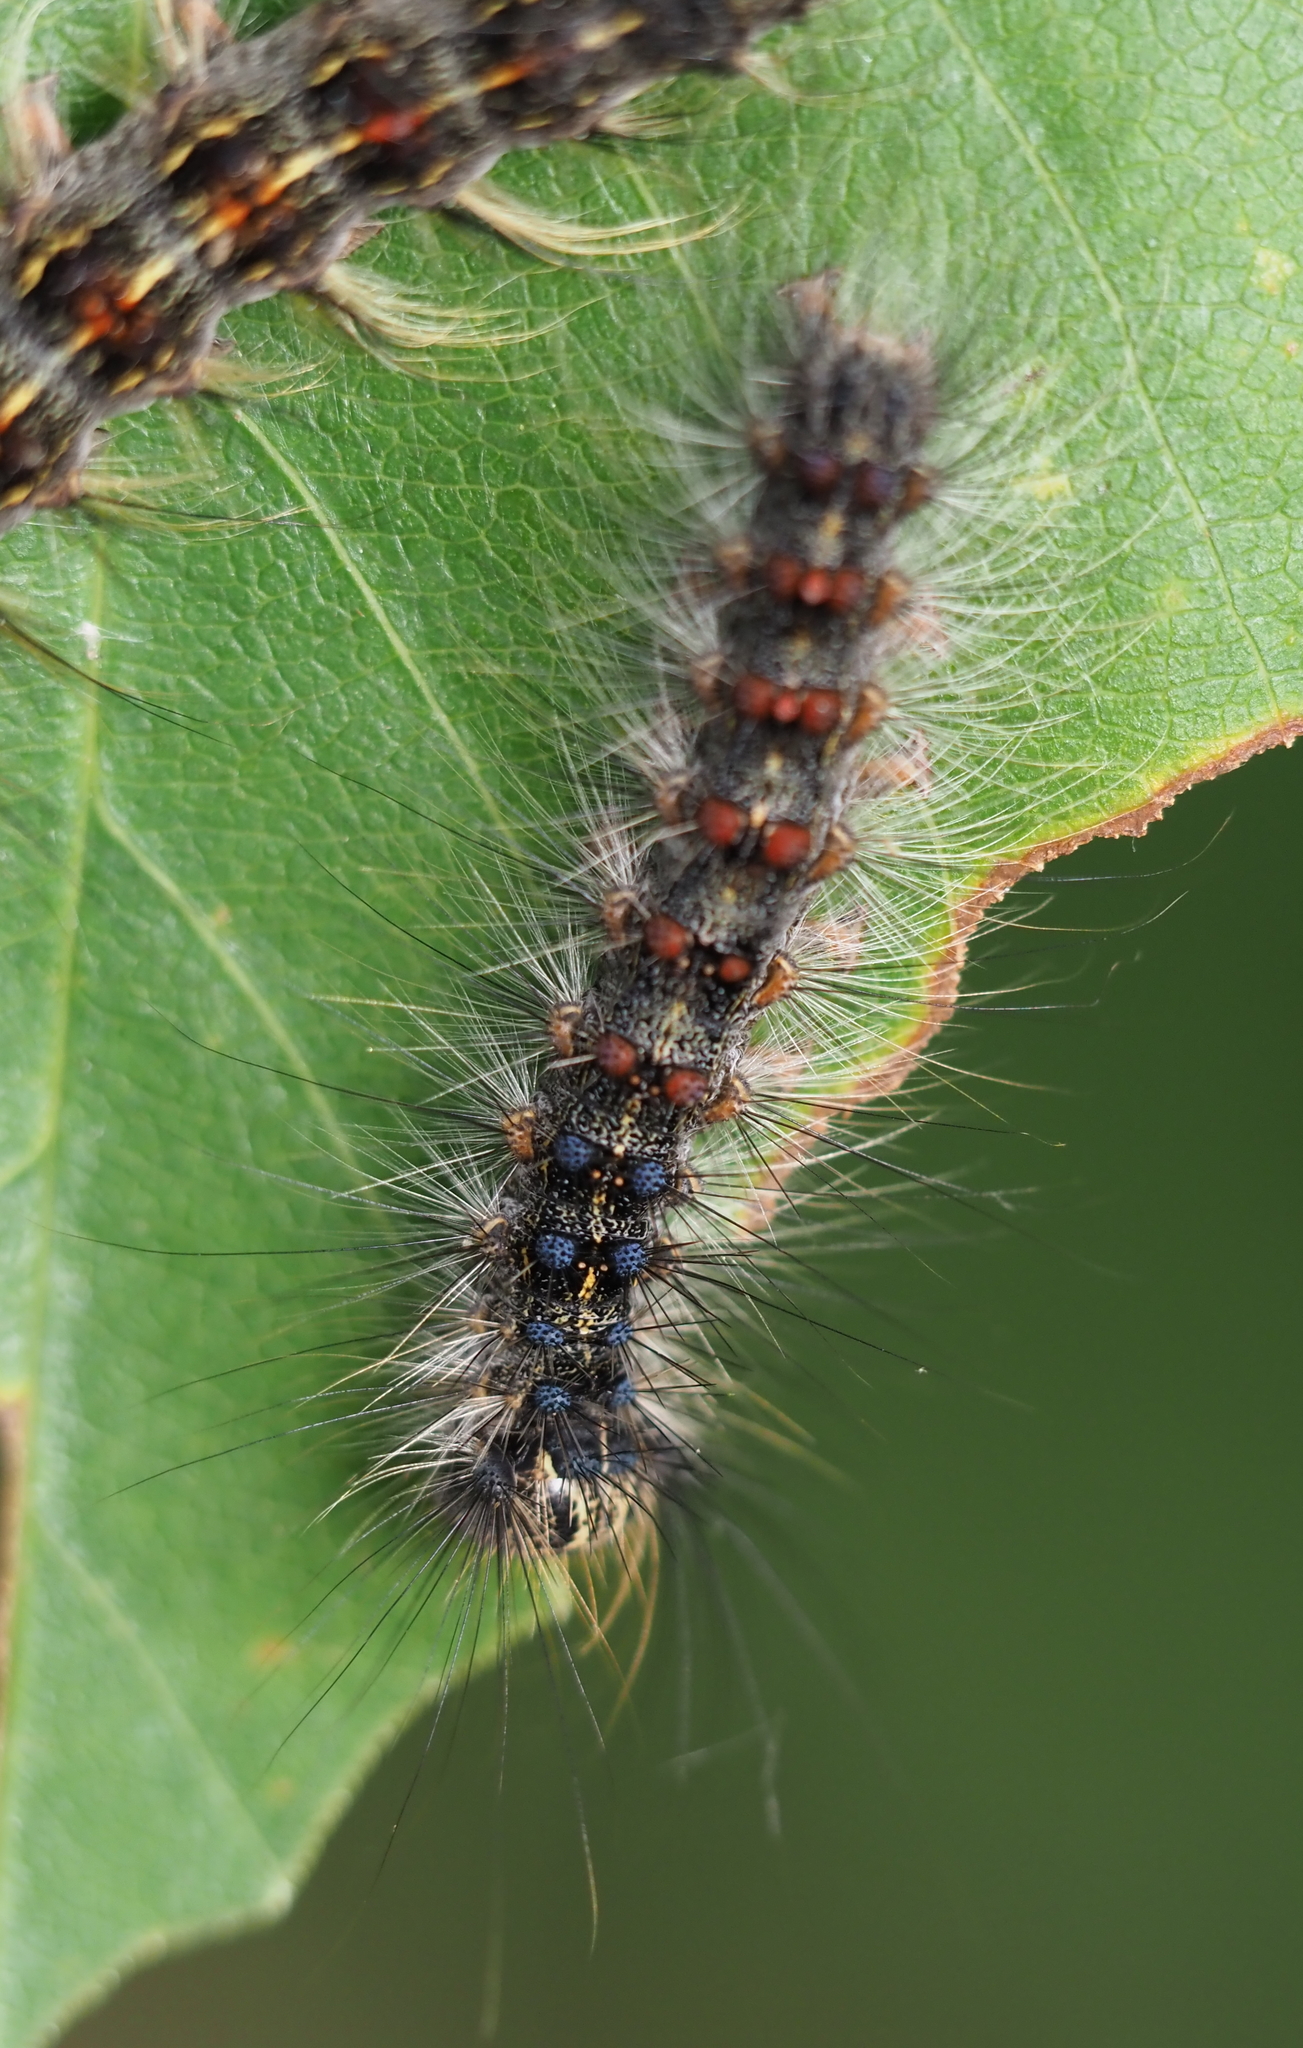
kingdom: Animalia
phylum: Arthropoda
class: Insecta
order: Lepidoptera
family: Erebidae
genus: Lymantria
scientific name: Lymantria dispar
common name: Gypsy moth
